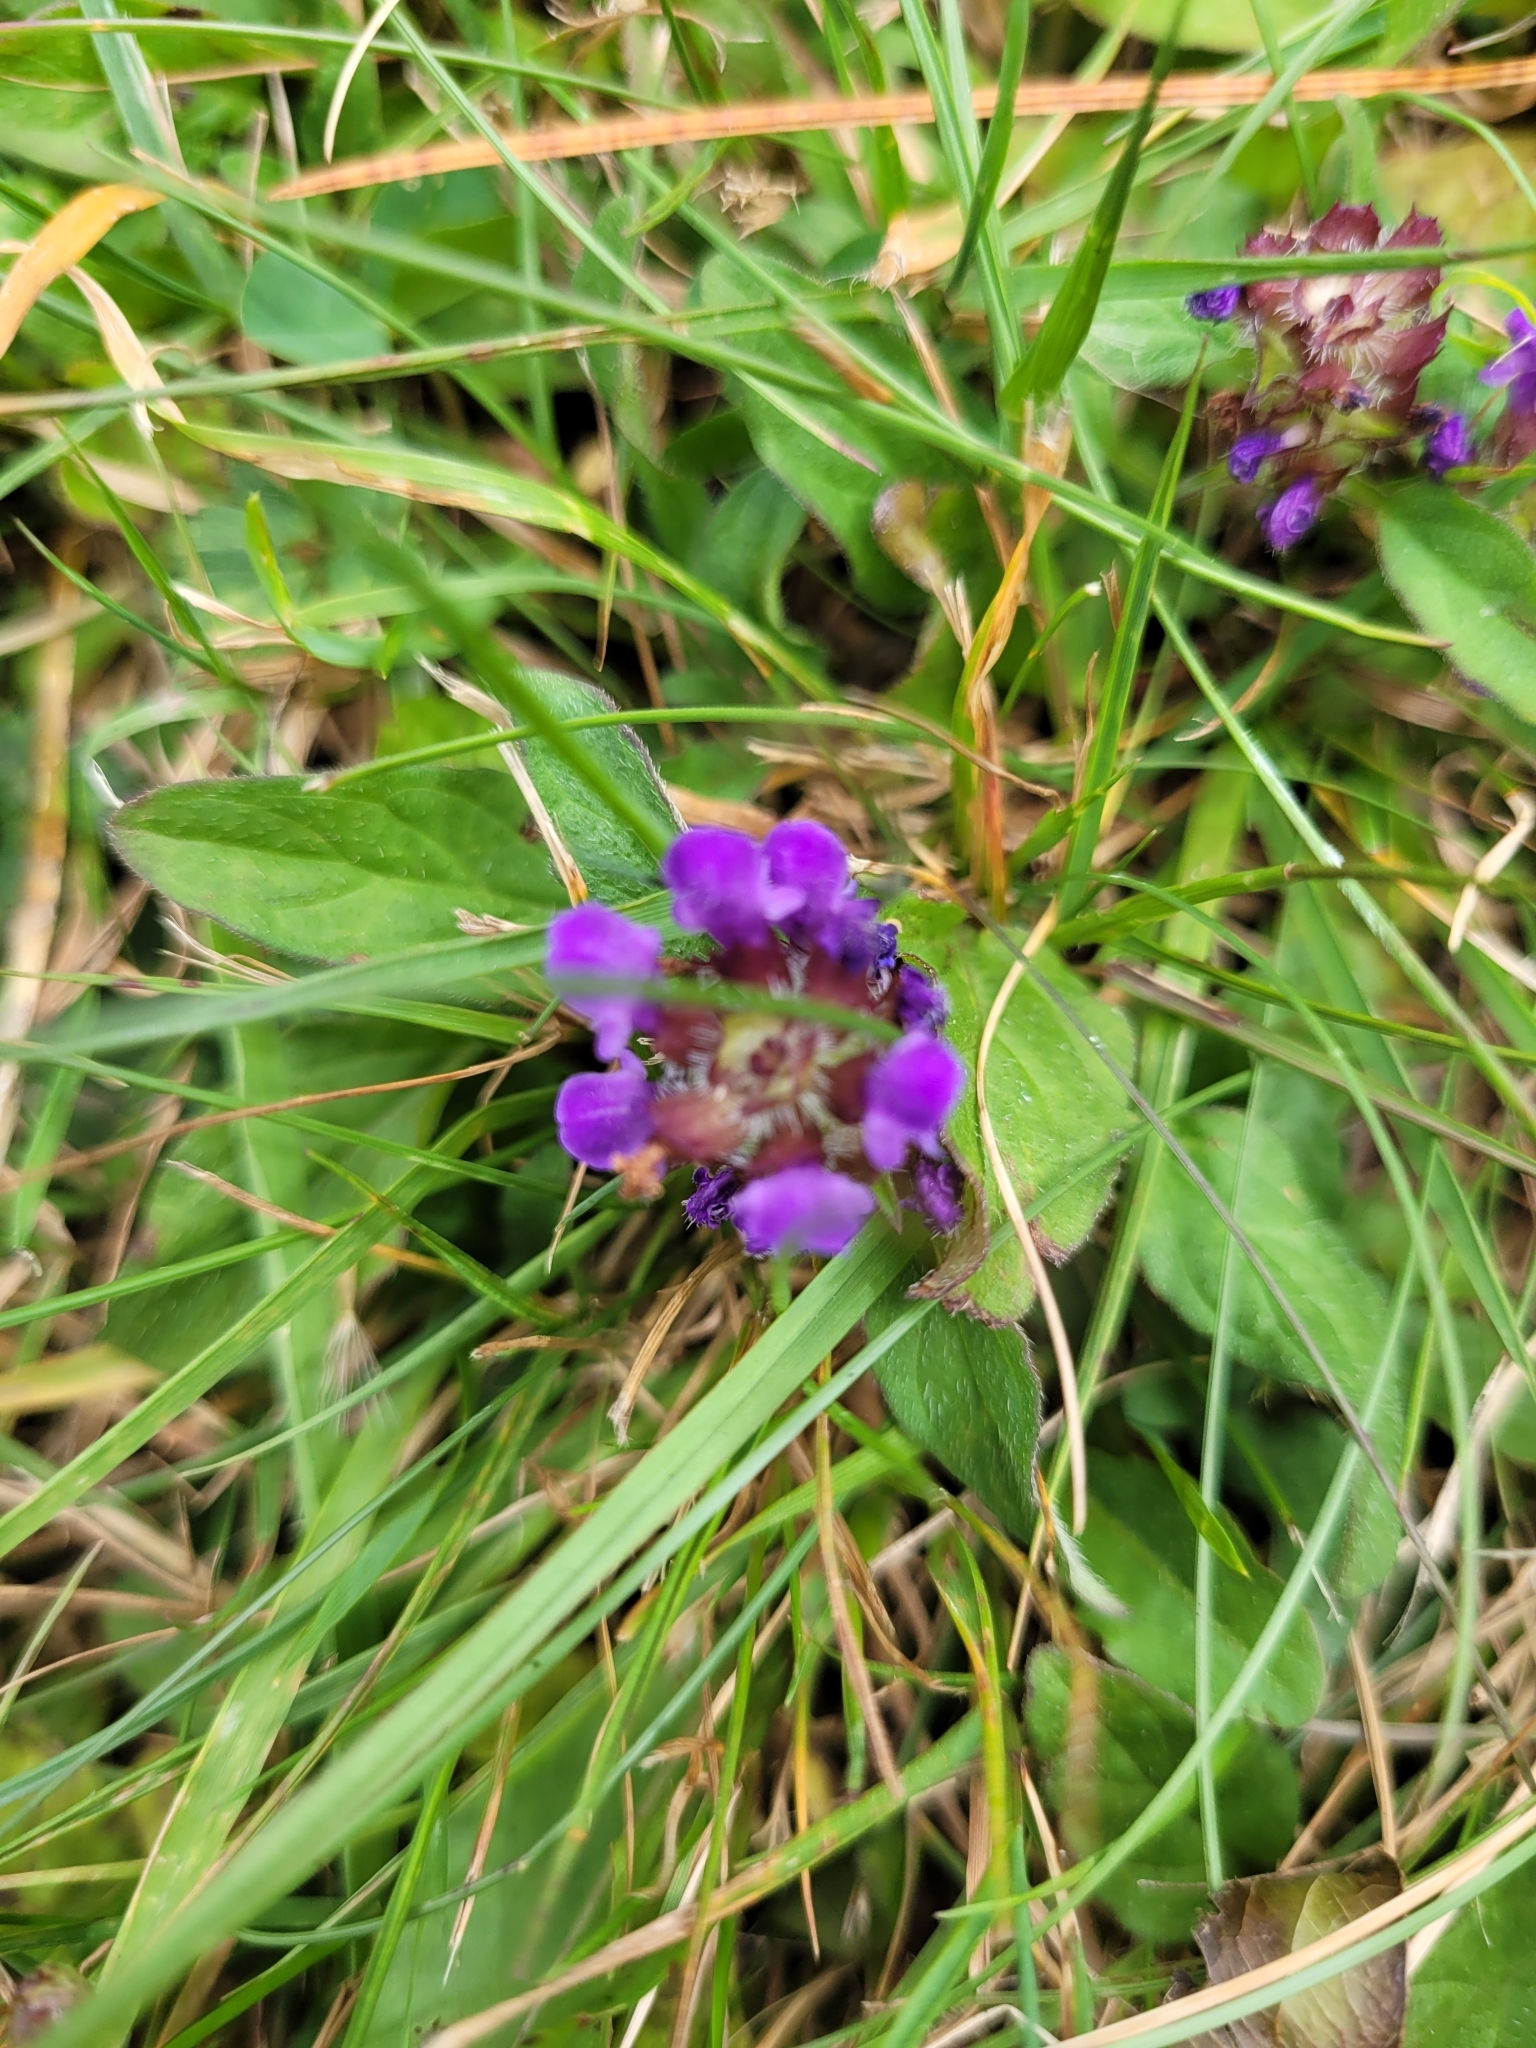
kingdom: Plantae
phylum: Tracheophyta
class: Magnoliopsida
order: Lamiales
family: Lamiaceae
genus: Prunella
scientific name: Prunella vulgaris
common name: Heal-all
